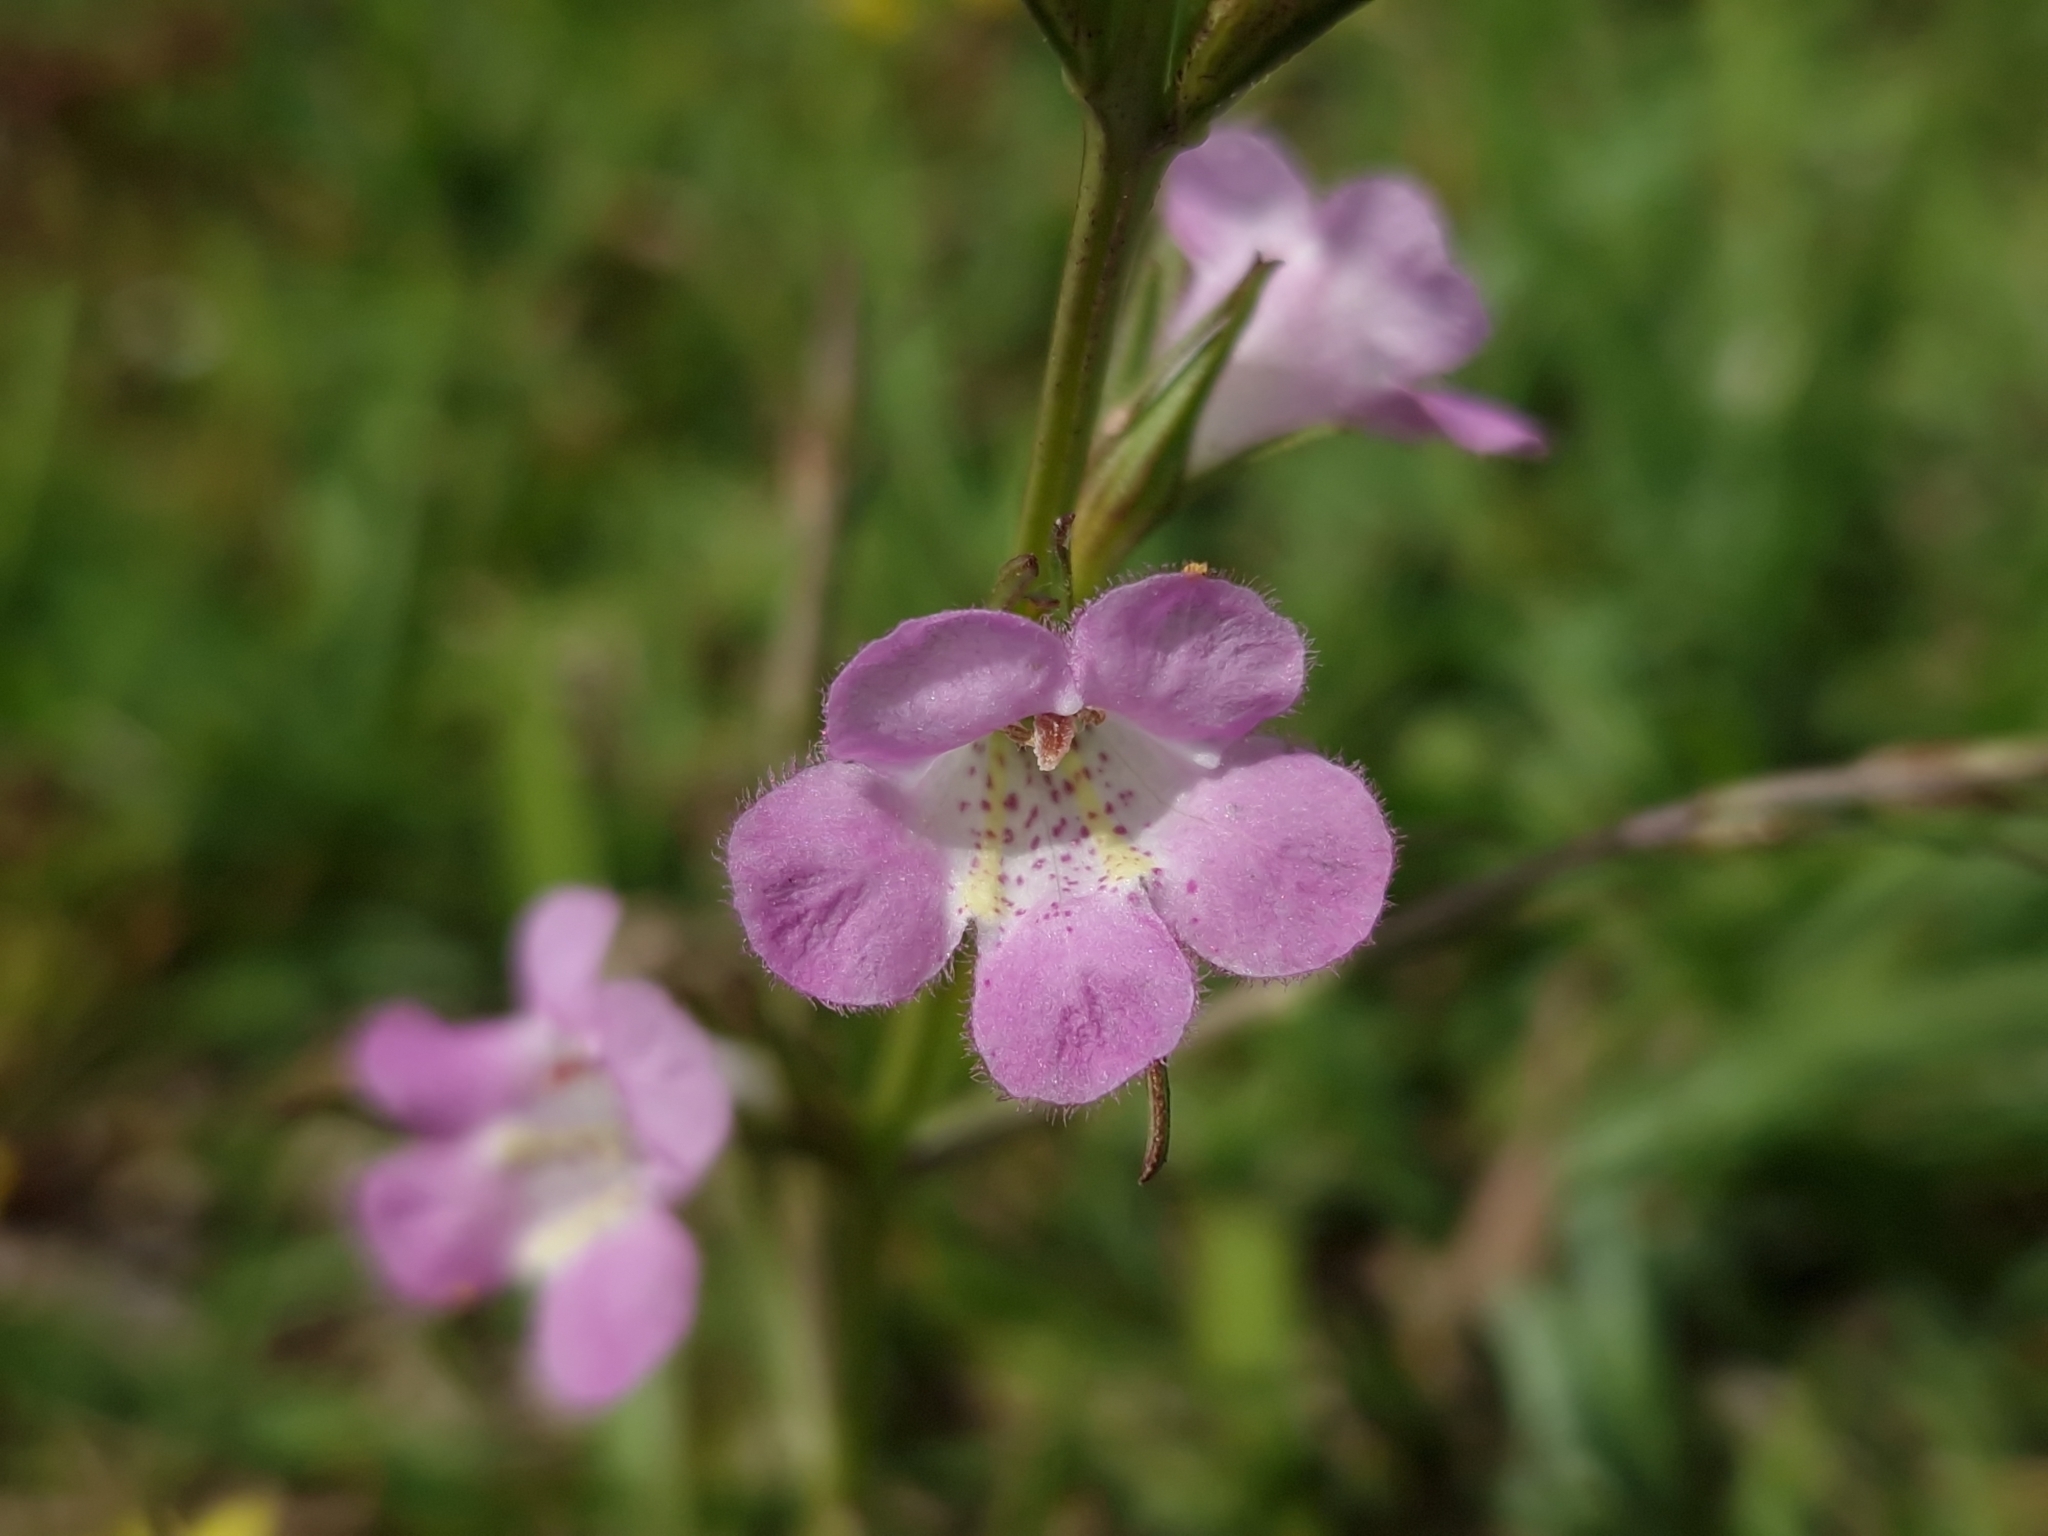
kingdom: Plantae
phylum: Tracheophyta
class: Magnoliopsida
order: Lamiales
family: Orobanchaceae
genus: Agalinis
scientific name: Agalinis communis
